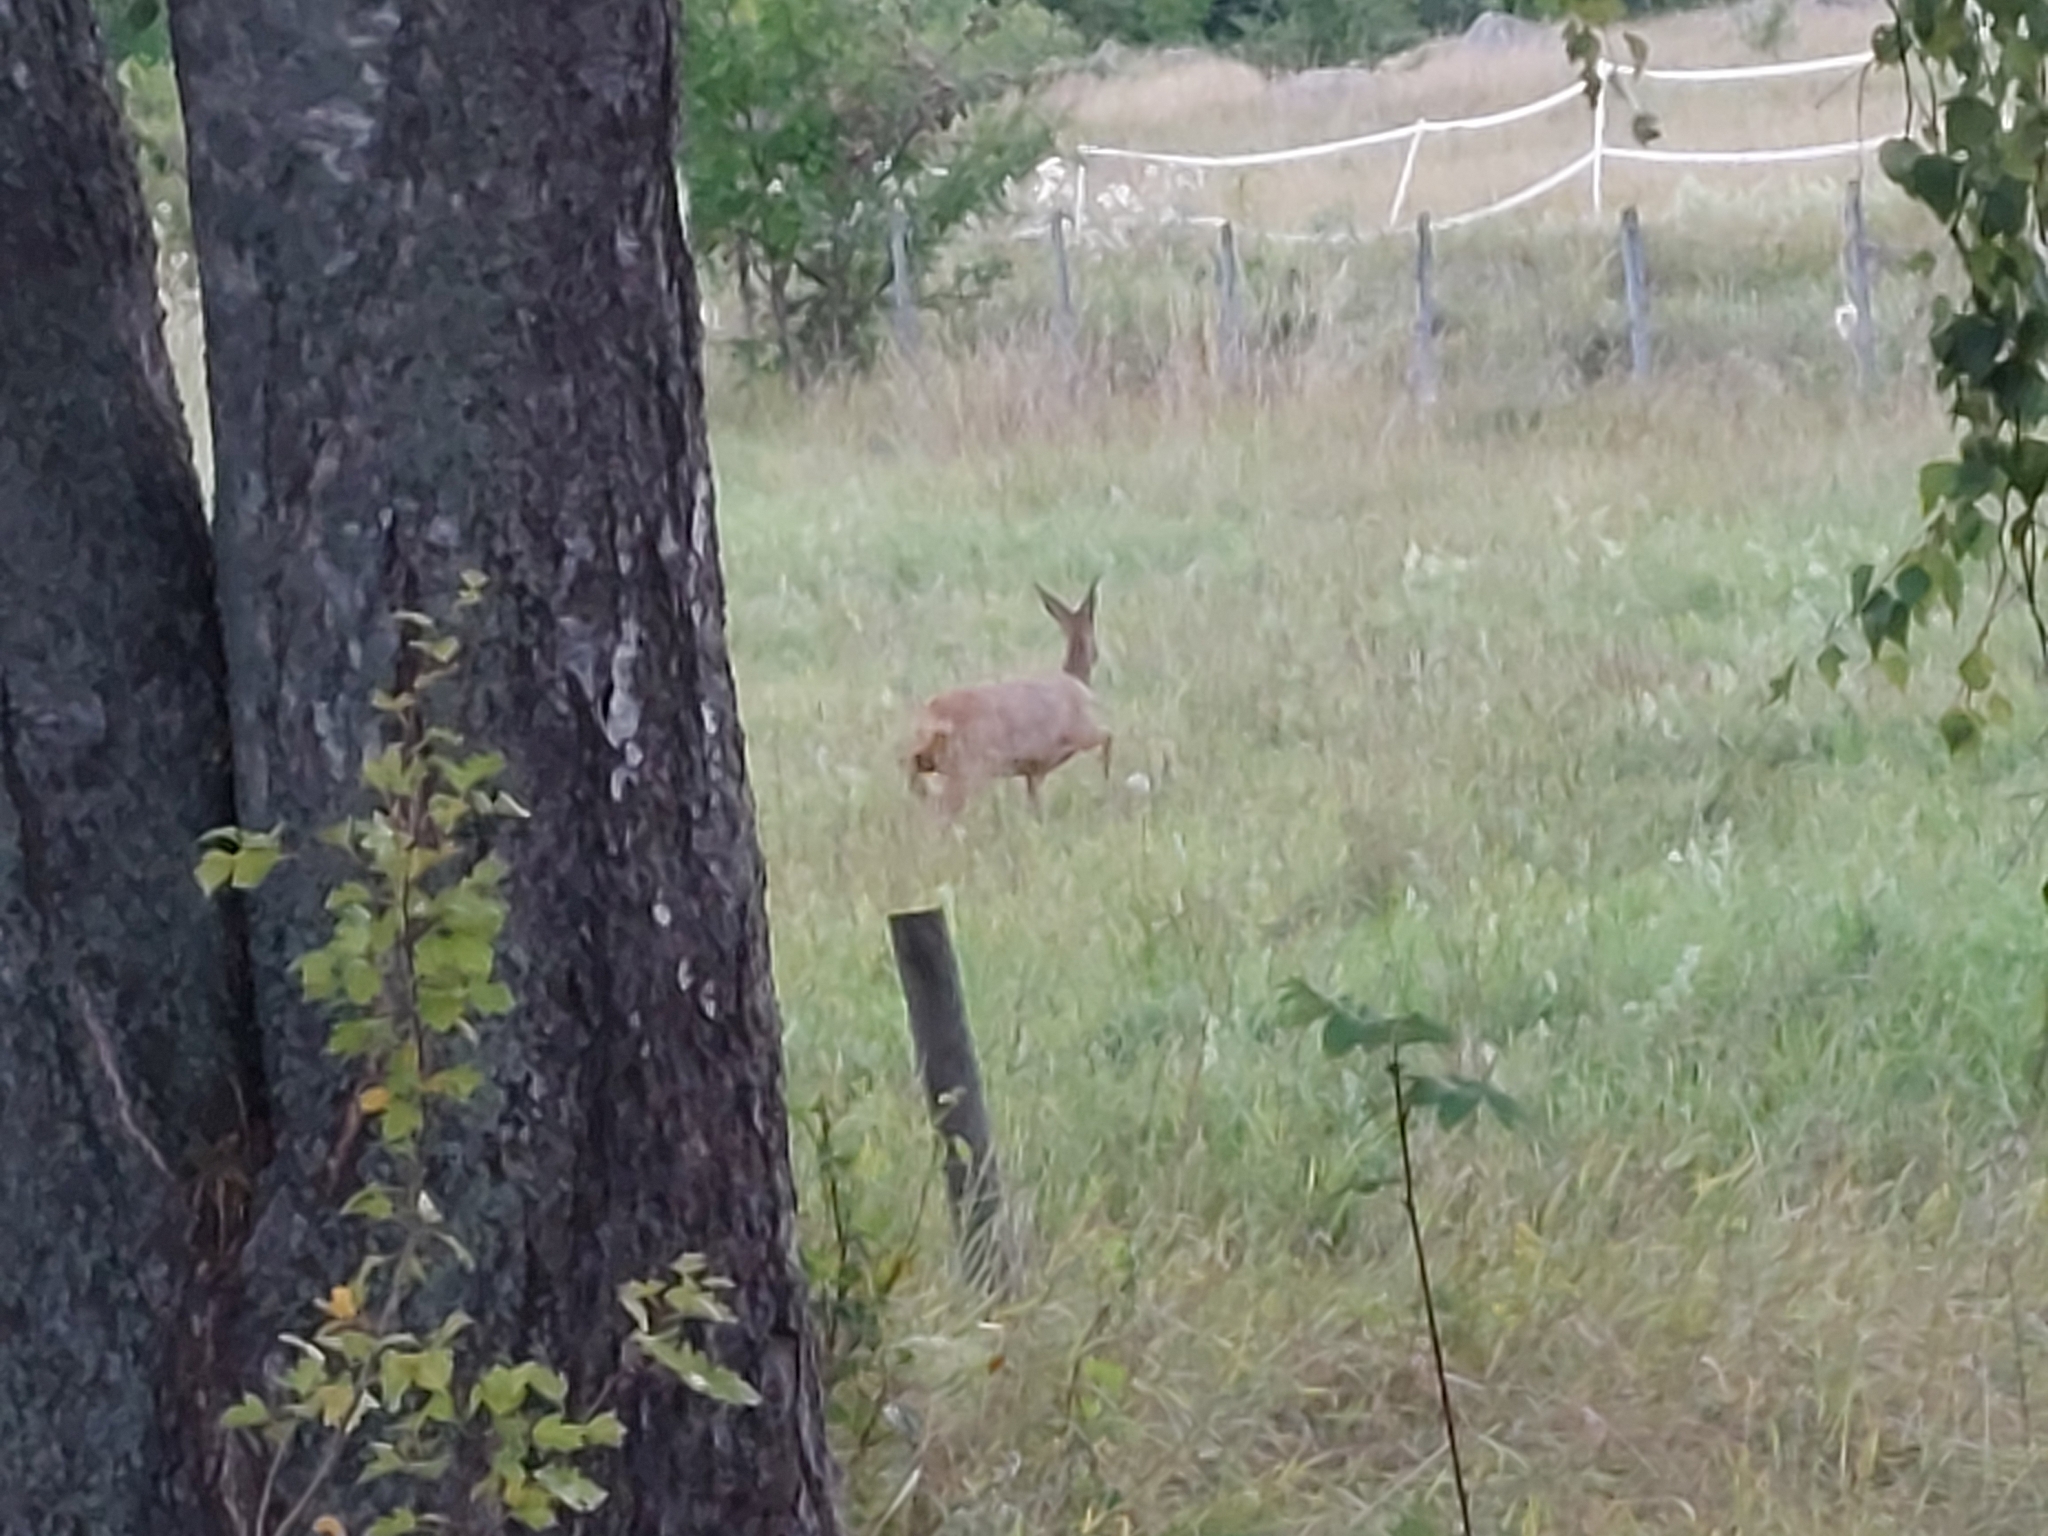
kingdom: Animalia
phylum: Chordata
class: Mammalia
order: Artiodactyla
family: Cervidae
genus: Capreolus
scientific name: Capreolus capreolus
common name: Western roe deer
